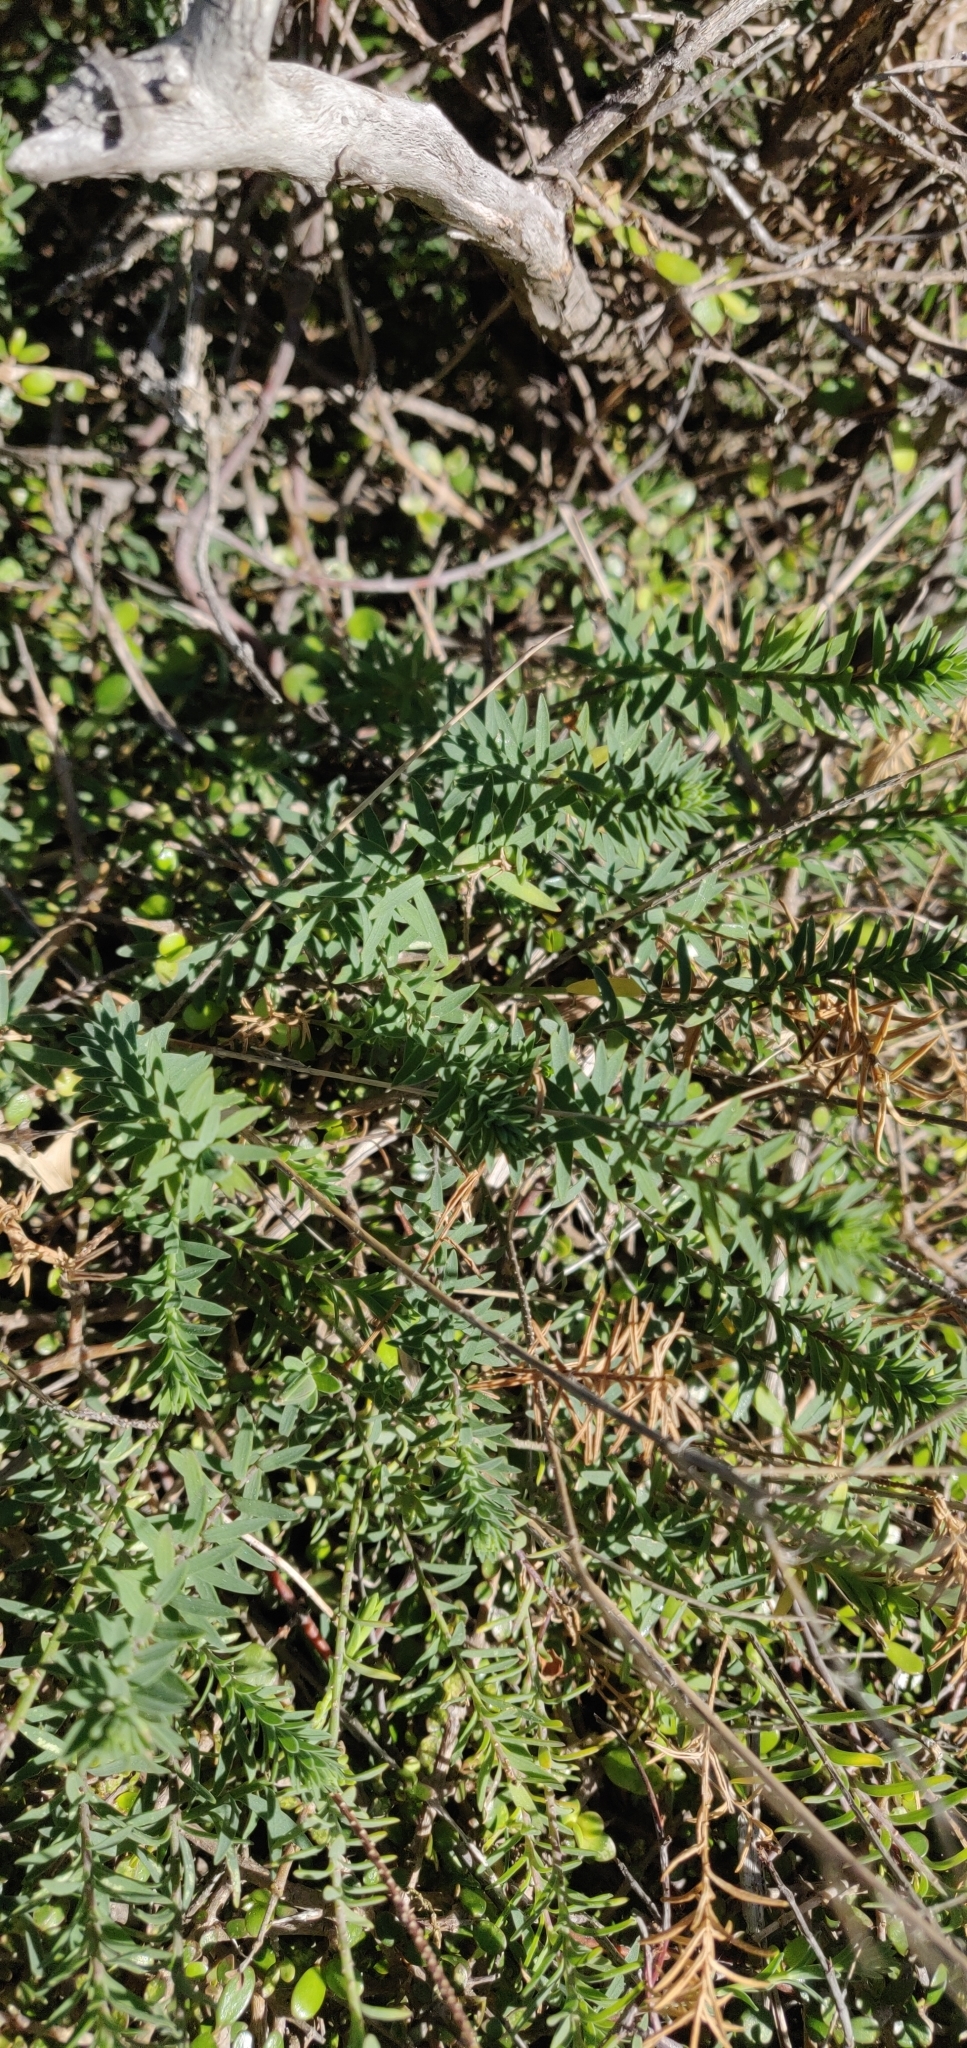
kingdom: Plantae
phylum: Tracheophyta
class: Magnoliopsida
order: Malpighiales
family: Linaceae
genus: Linum
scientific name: Linum monogynum
